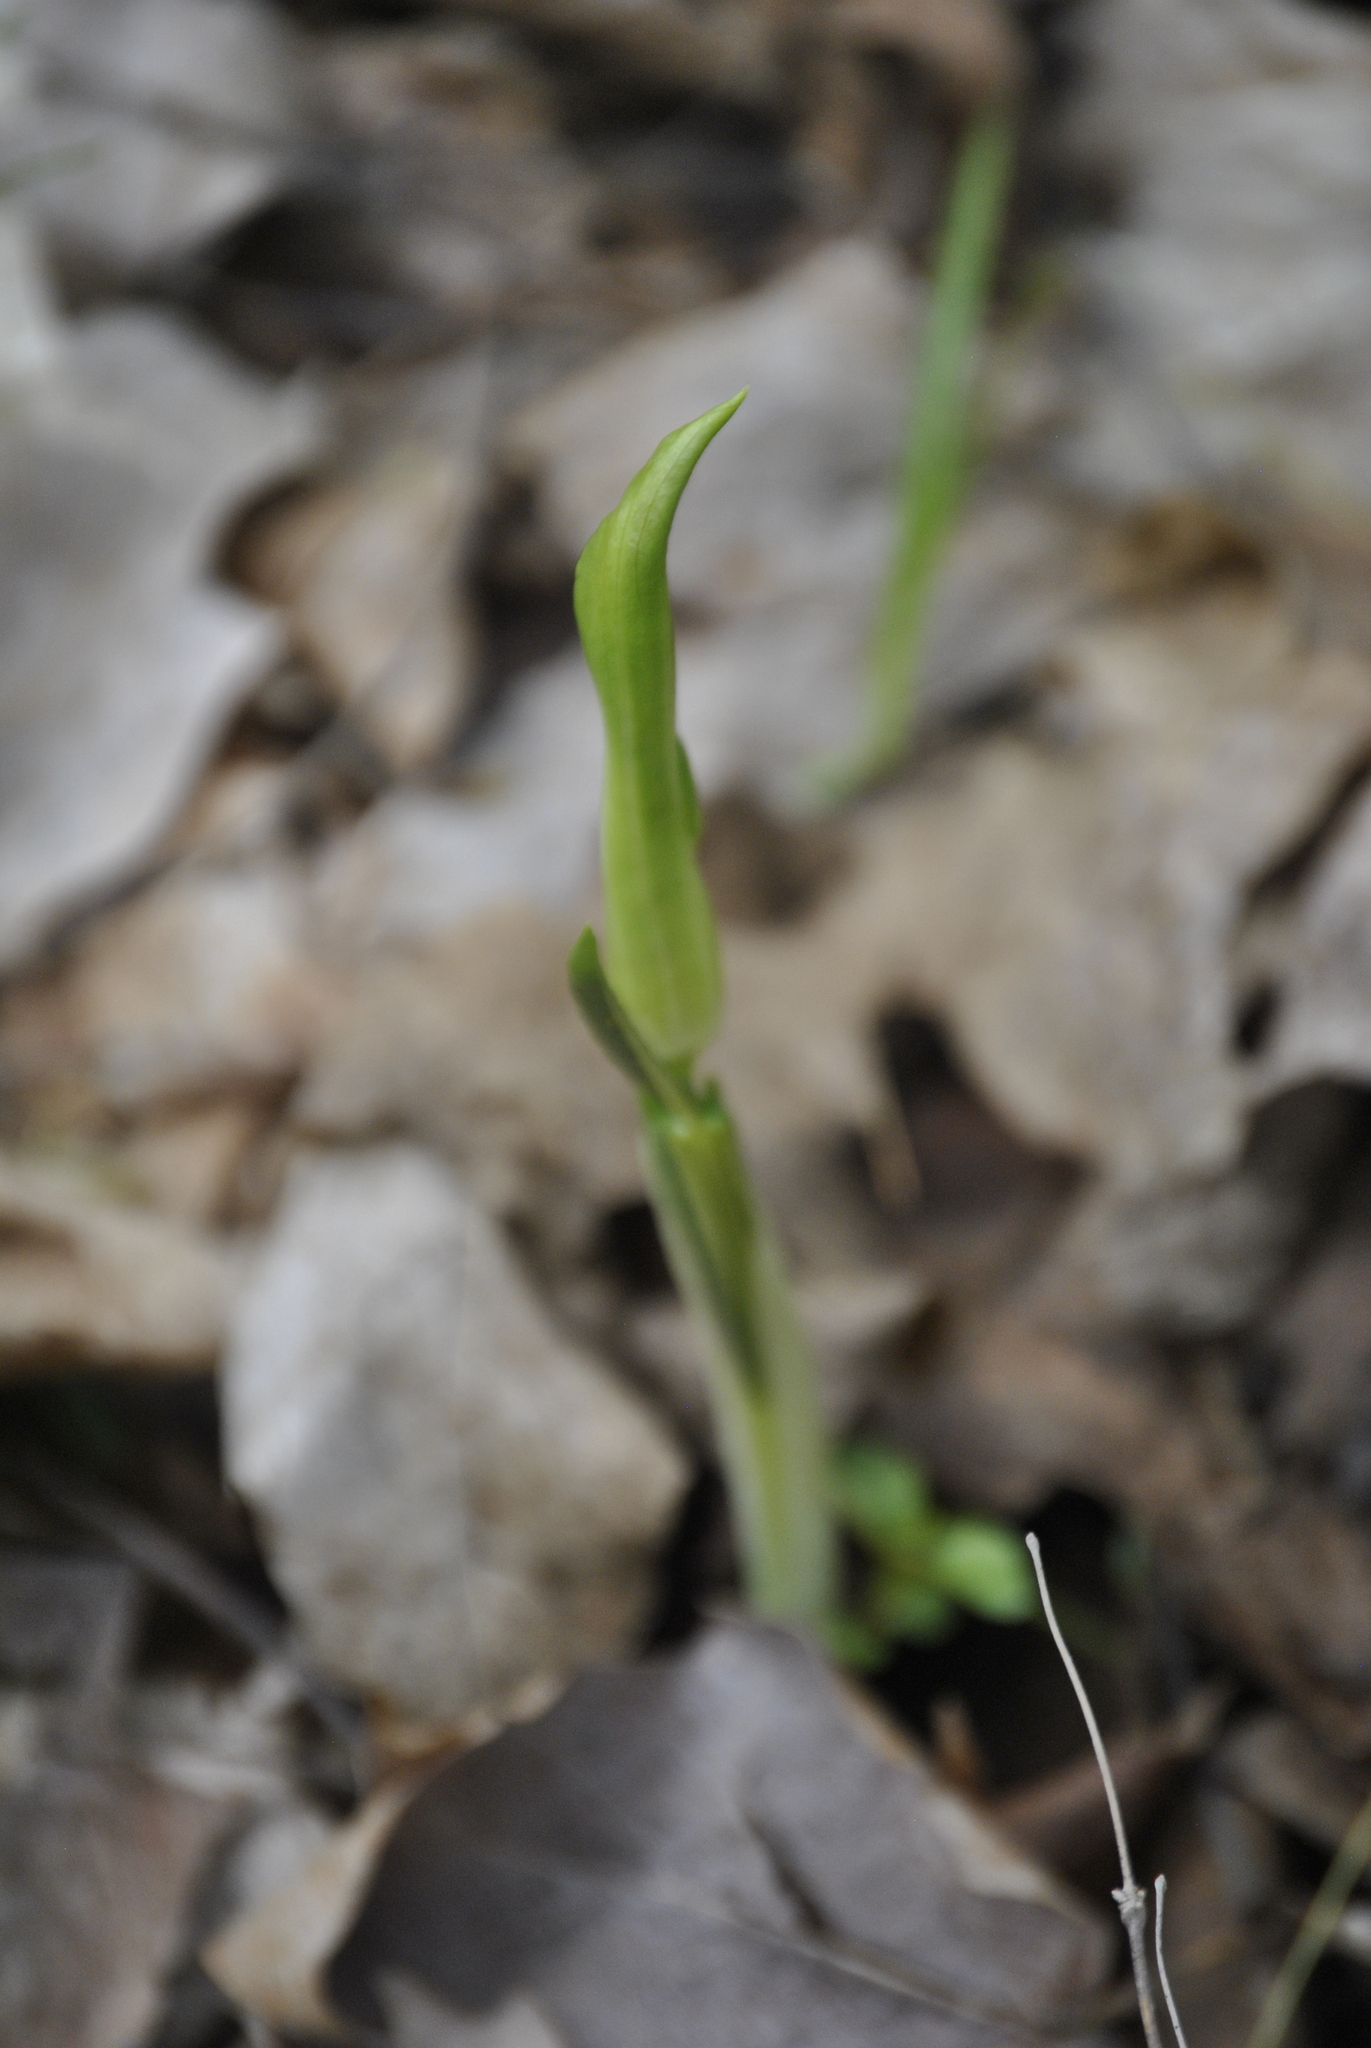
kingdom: Plantae
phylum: Tracheophyta
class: Liliopsida
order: Alismatales
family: Araceae
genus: Arisaema
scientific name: Arisaema triphyllum
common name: Jack-in-the-pulpit
